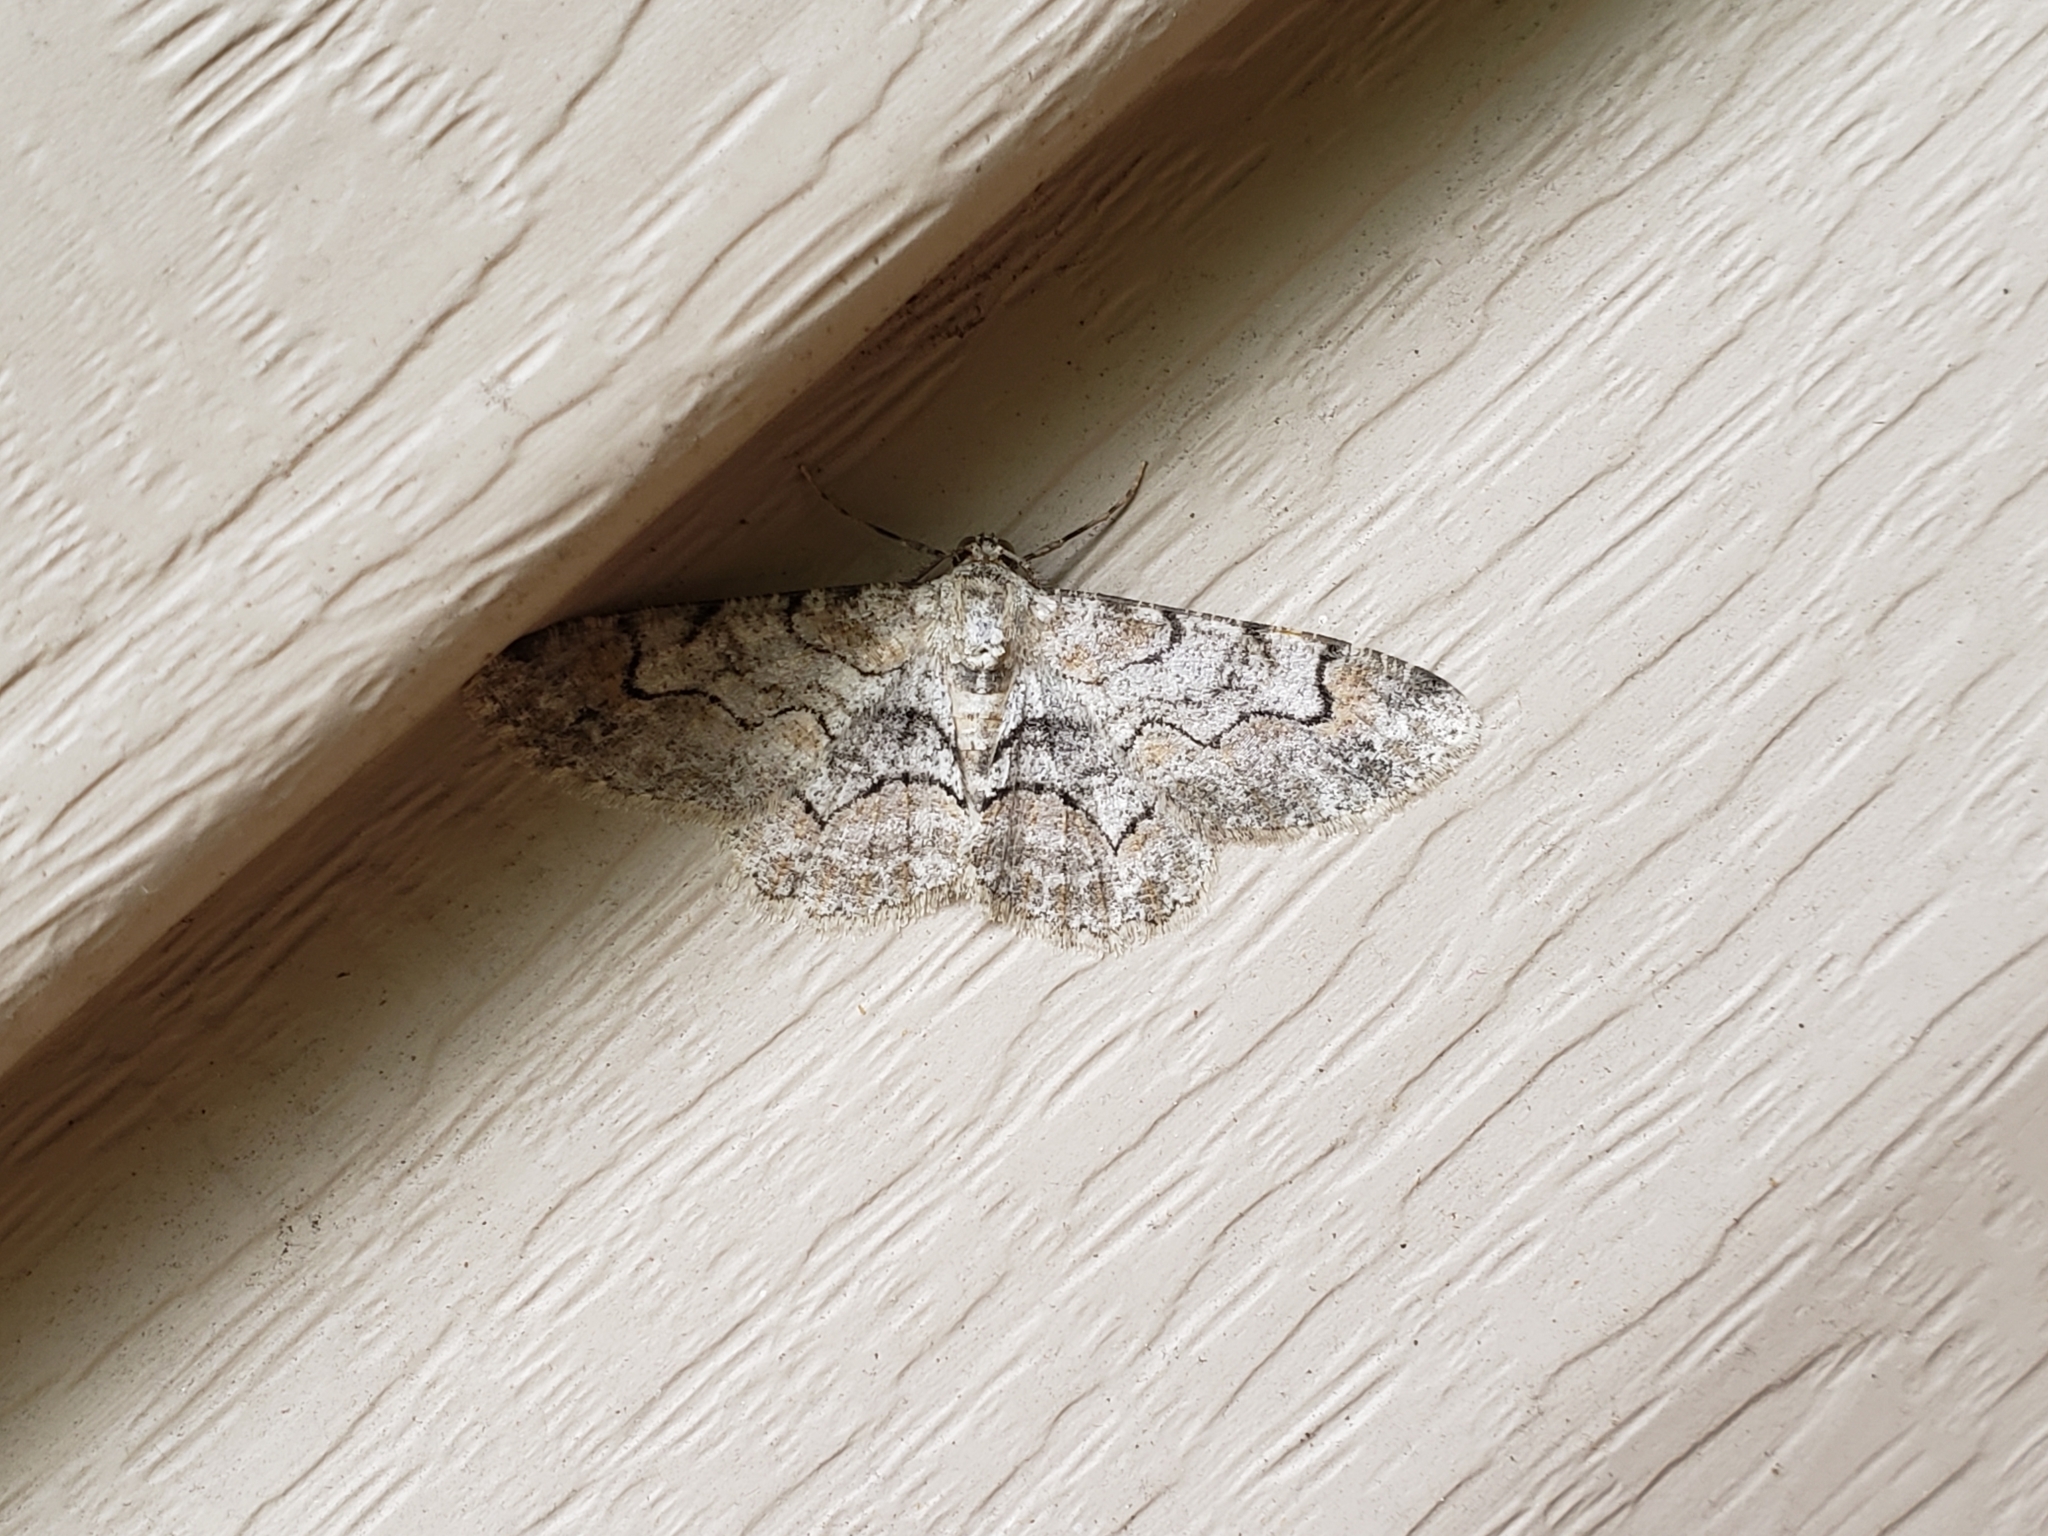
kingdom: Animalia
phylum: Arthropoda
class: Insecta
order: Lepidoptera
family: Geometridae
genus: Iridopsis
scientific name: Iridopsis larvaria
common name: Bent-line gray
